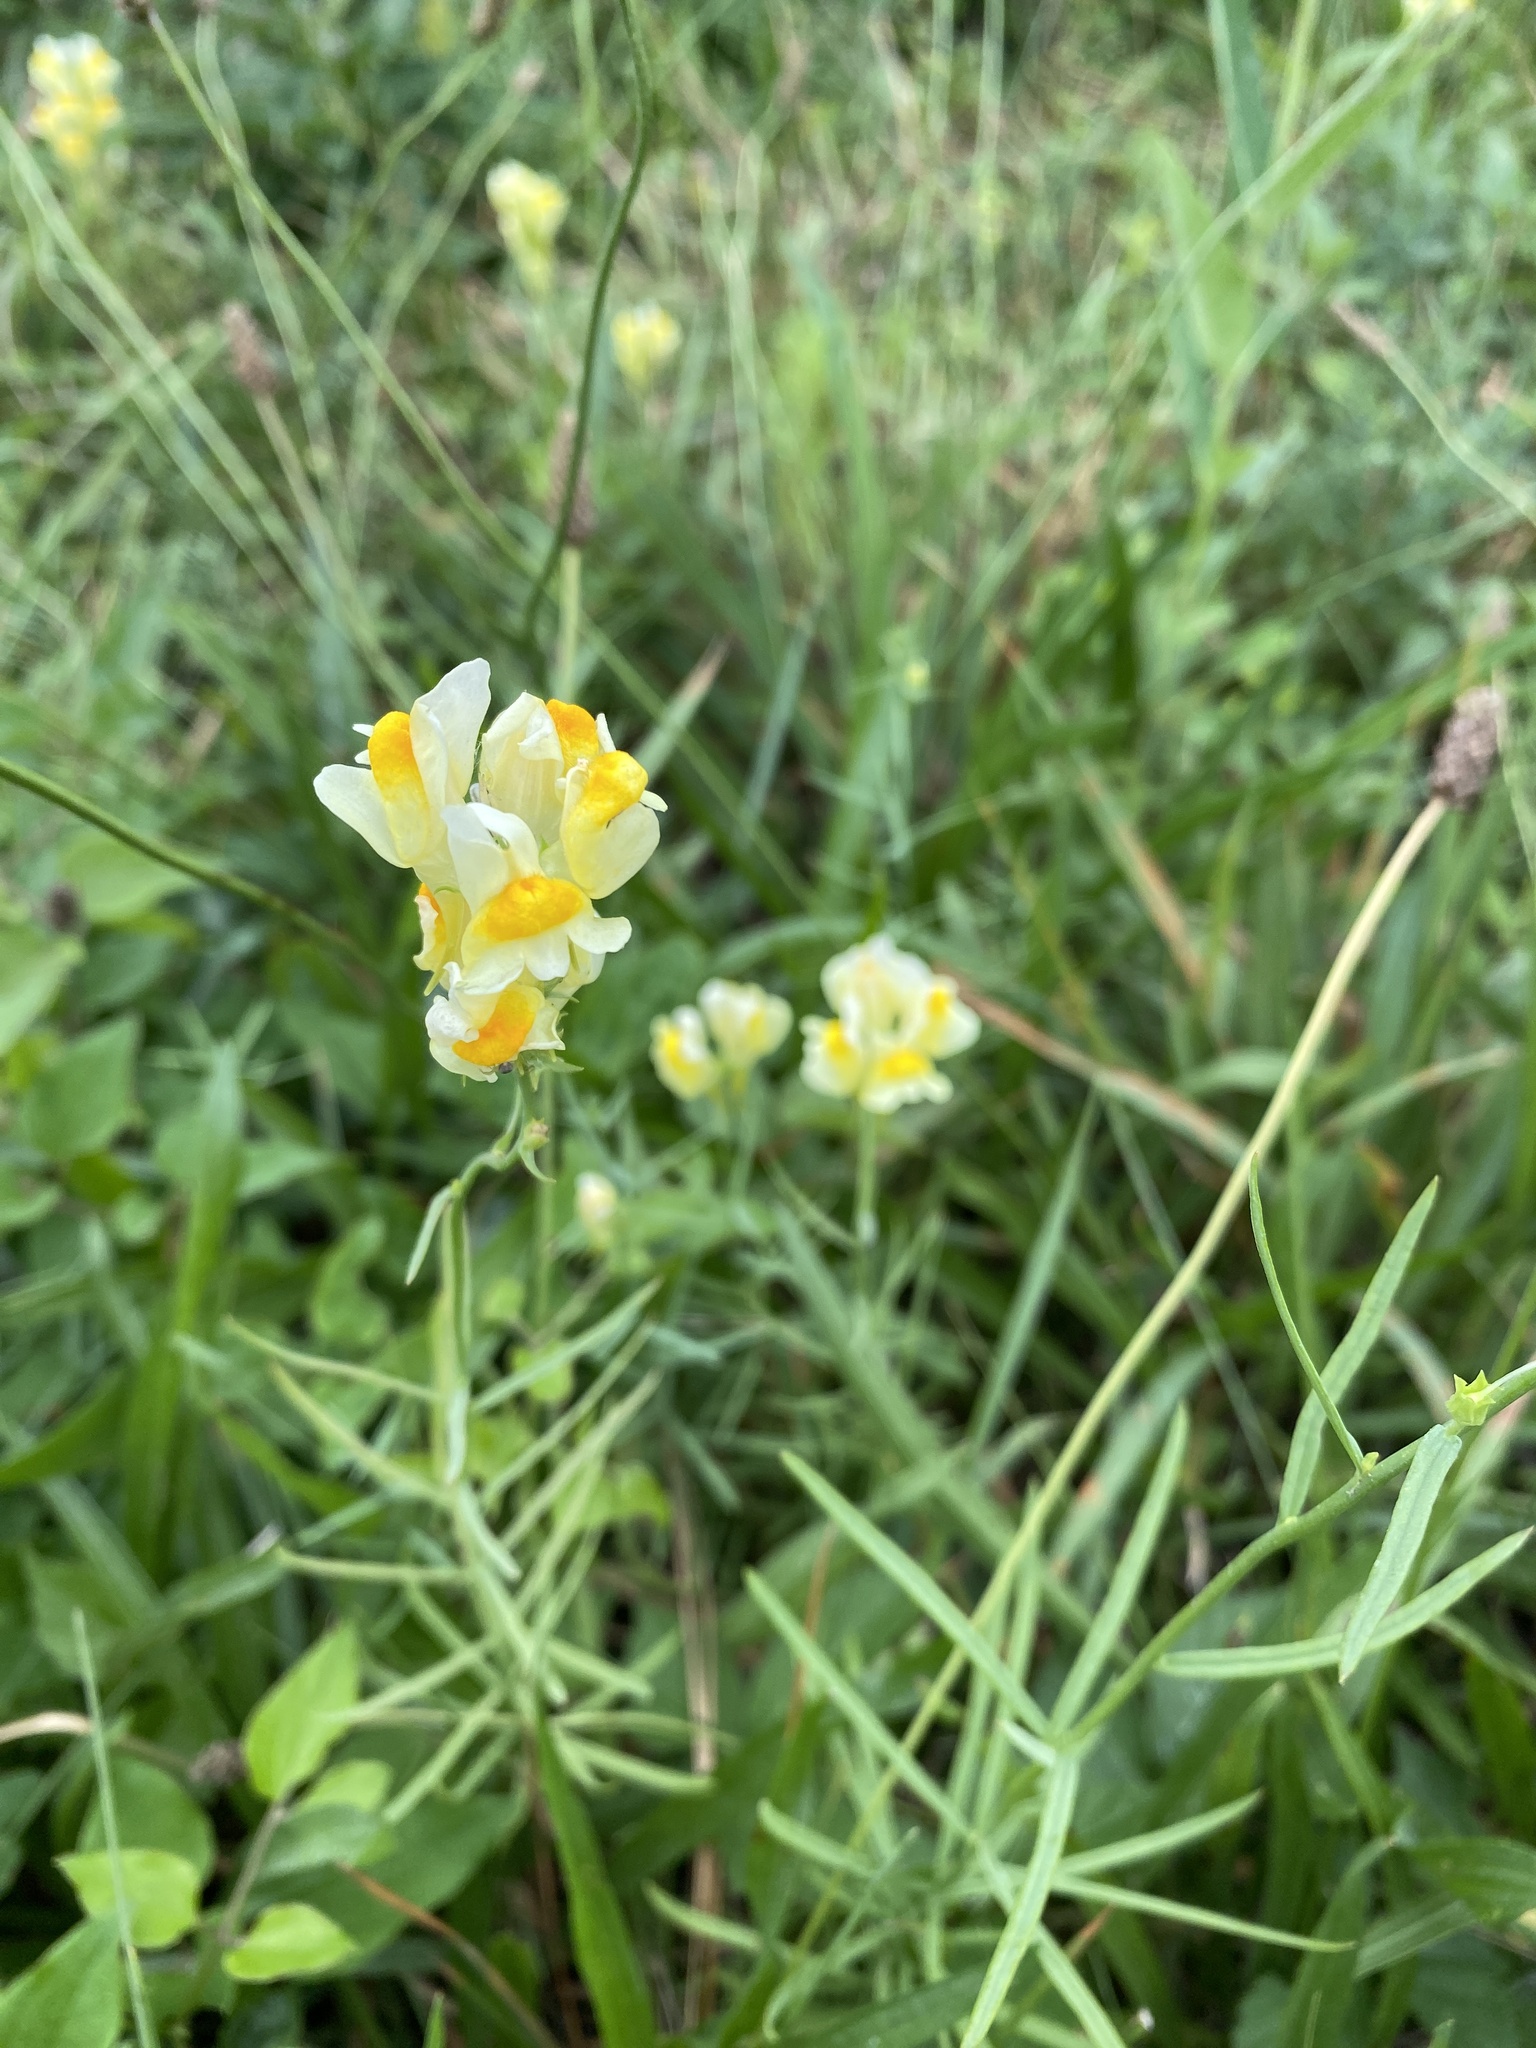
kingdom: Plantae
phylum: Tracheophyta
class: Magnoliopsida
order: Lamiales
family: Plantaginaceae
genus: Linaria
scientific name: Linaria vulgaris
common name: Butter and eggs
